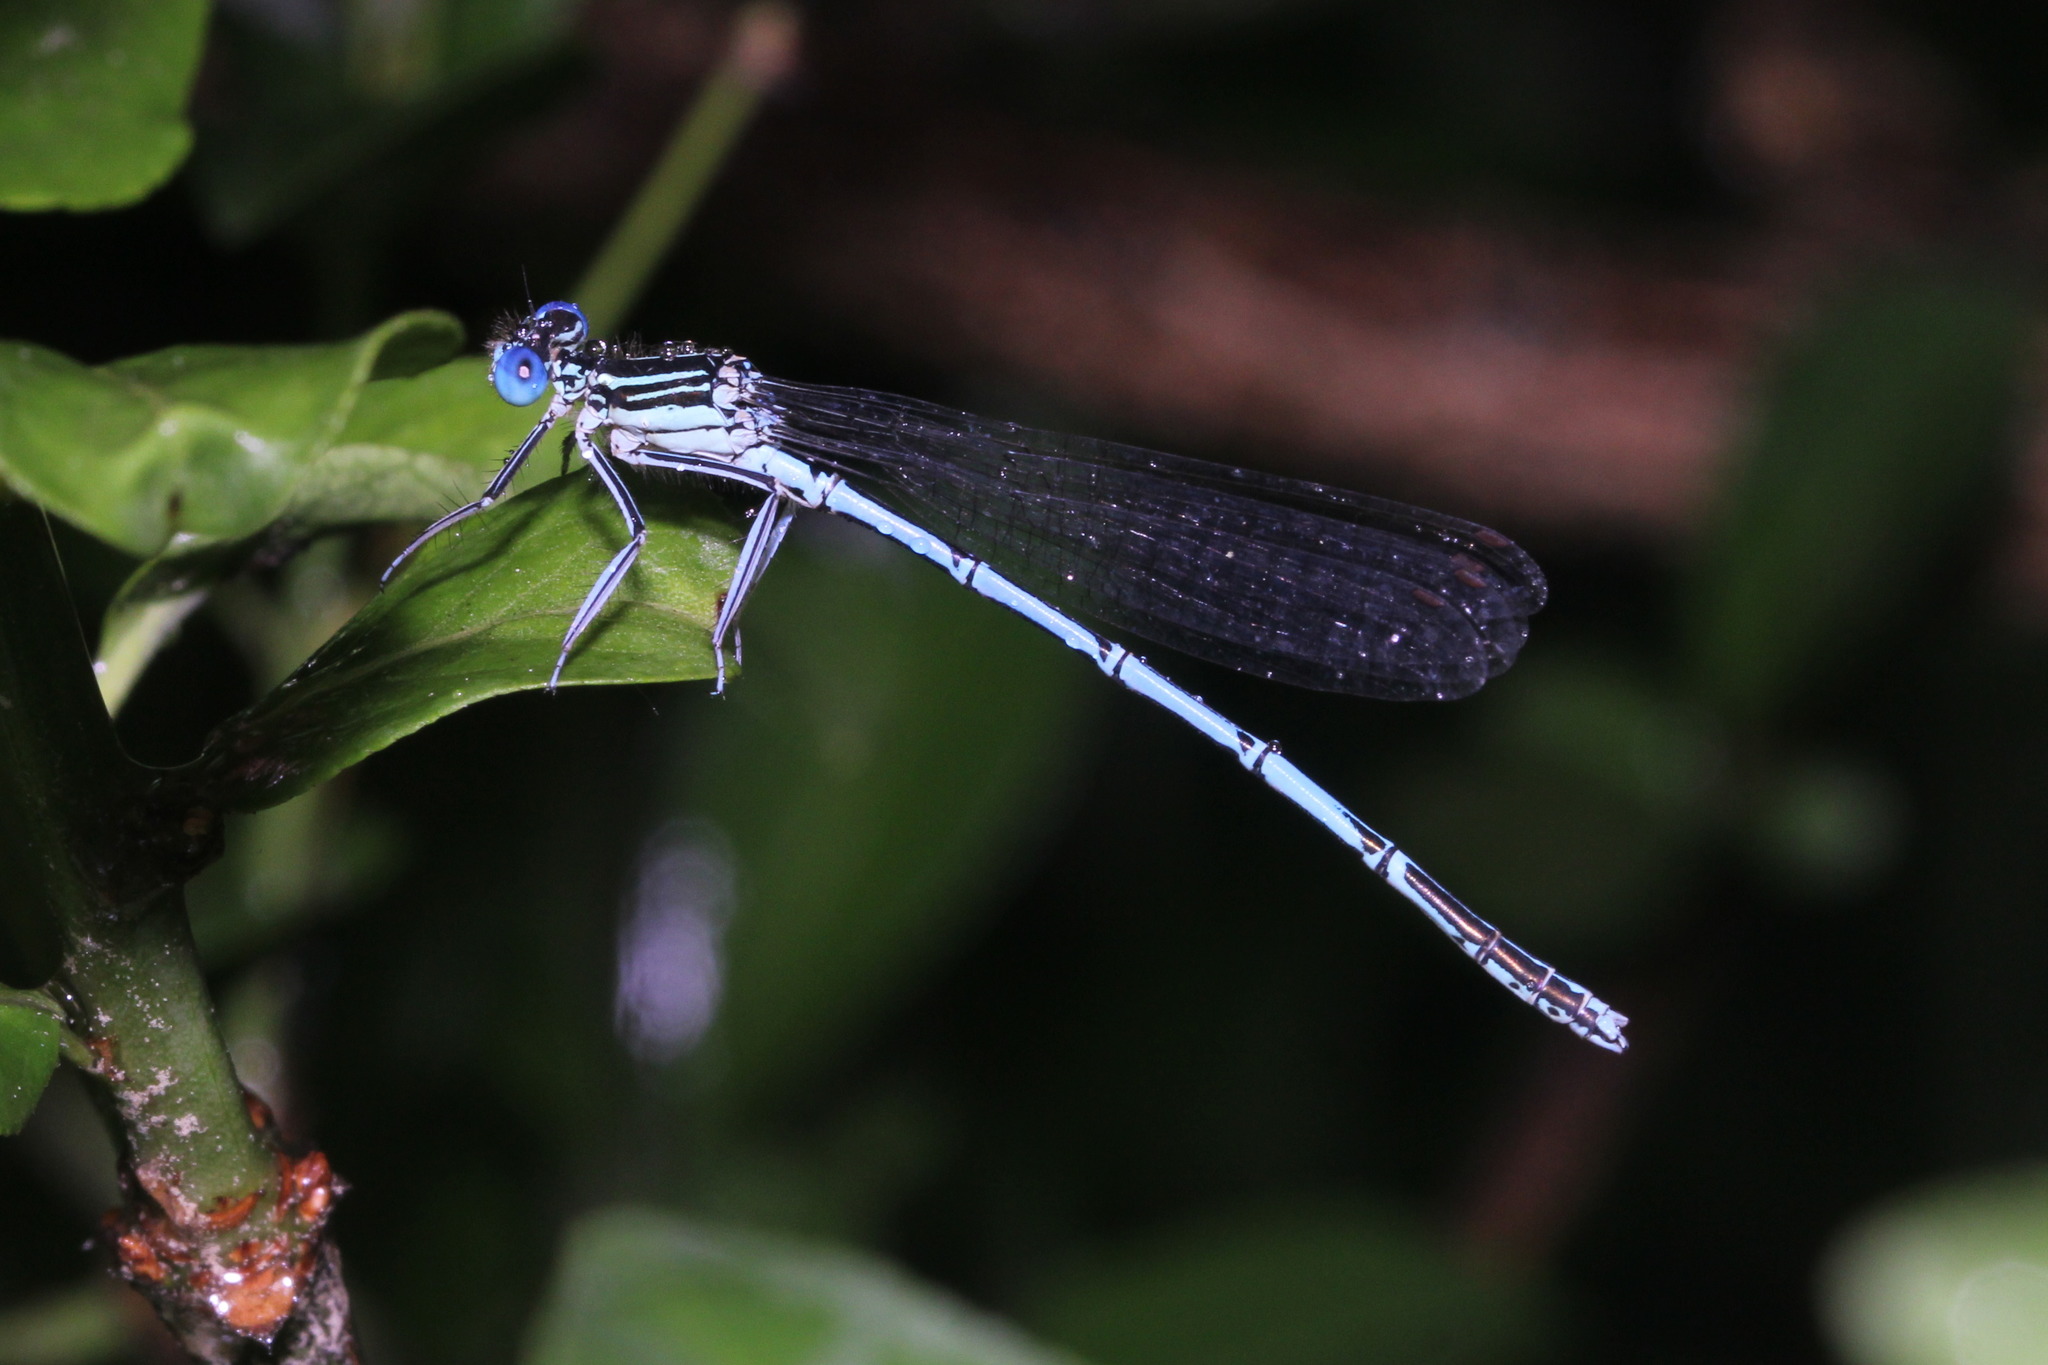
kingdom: Animalia
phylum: Arthropoda
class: Insecta
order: Odonata
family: Platycnemididae
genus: Platycnemis
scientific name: Platycnemis pennipes
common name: White-legged damselfly
